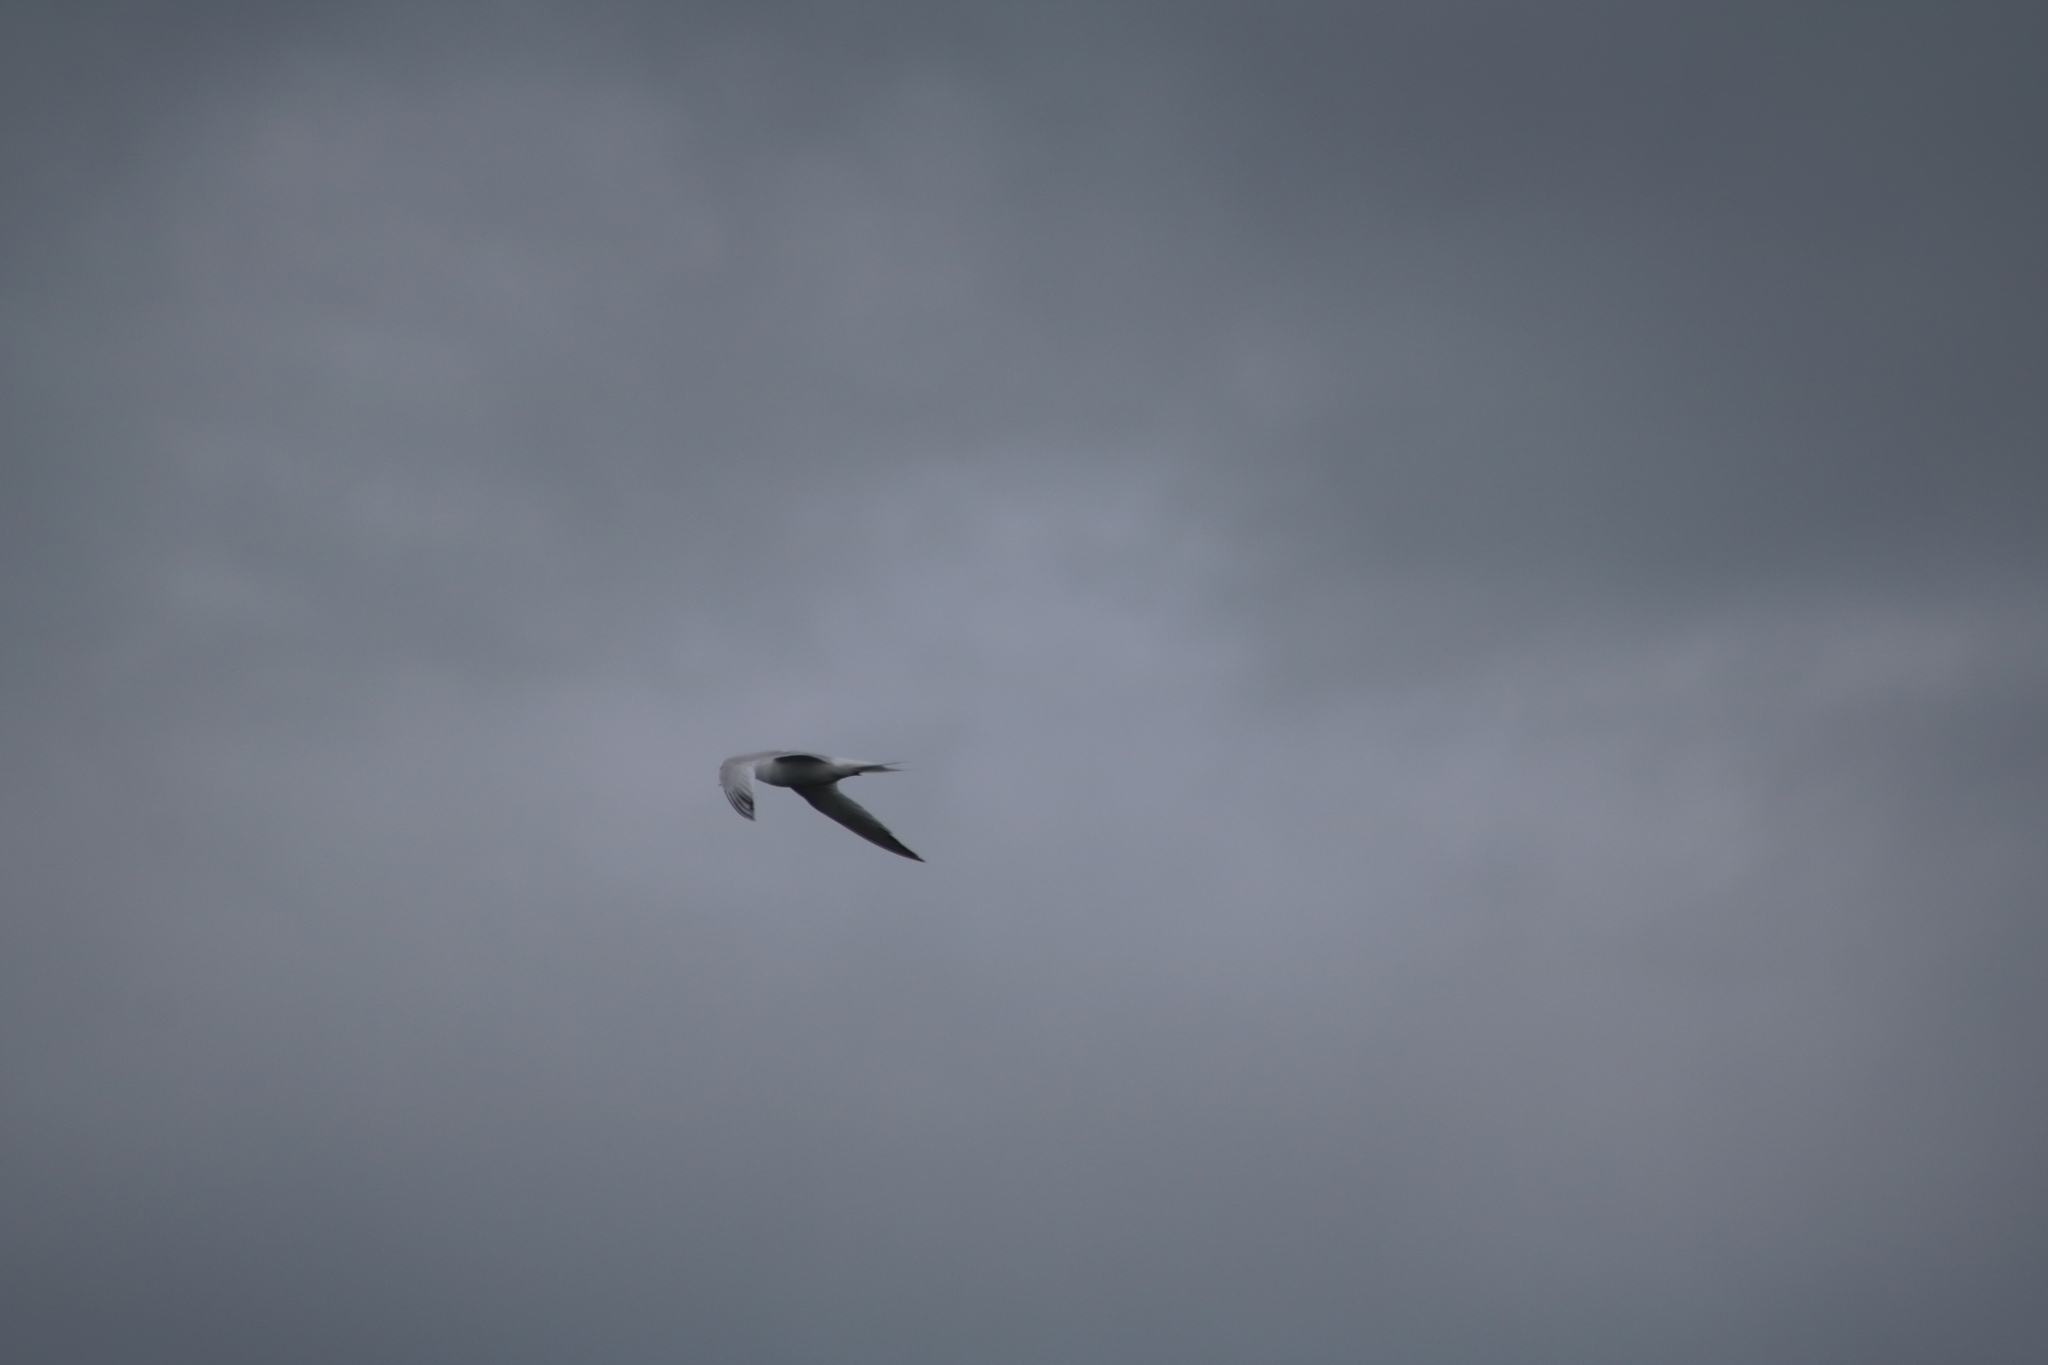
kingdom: Animalia
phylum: Chordata
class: Aves
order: Charadriiformes
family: Laridae
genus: Thalasseus
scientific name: Thalasseus sandvicensis
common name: Sandwich tern
